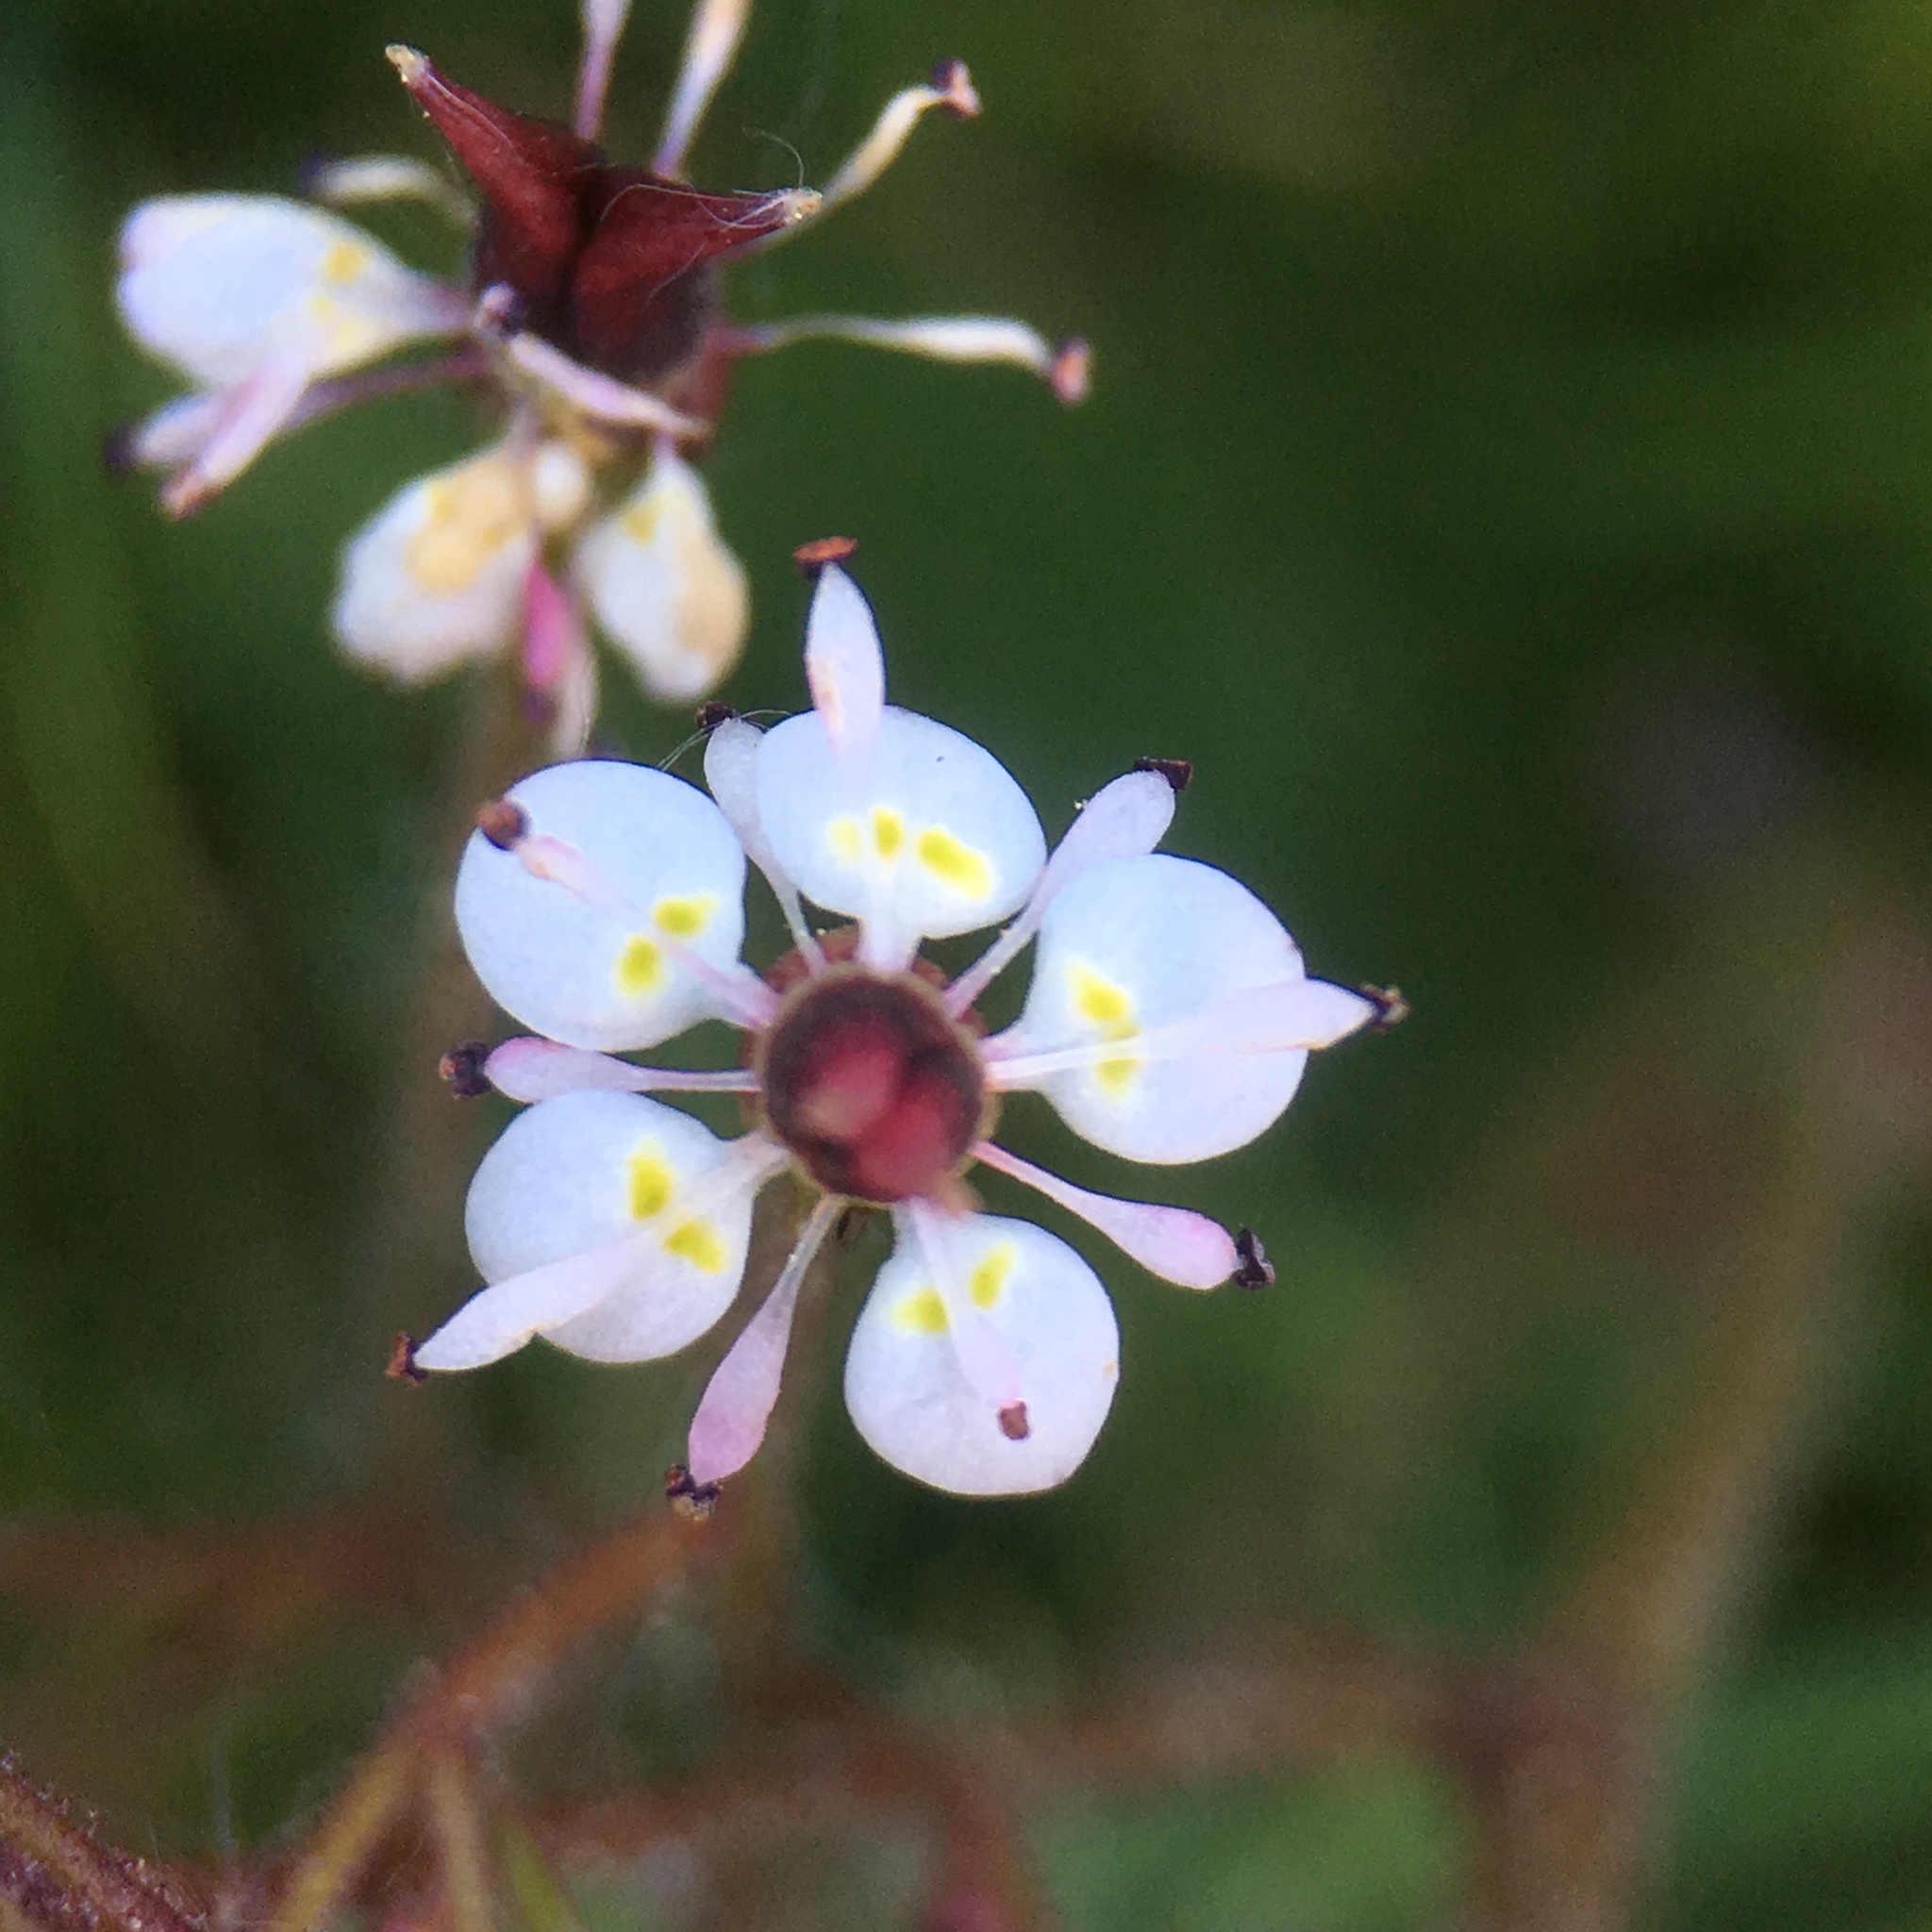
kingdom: Plantae
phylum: Tracheophyta
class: Magnoliopsida
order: Saxifragales
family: Saxifragaceae
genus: Micranthes
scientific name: Micranthes odontoloma
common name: Brook saxifrage
